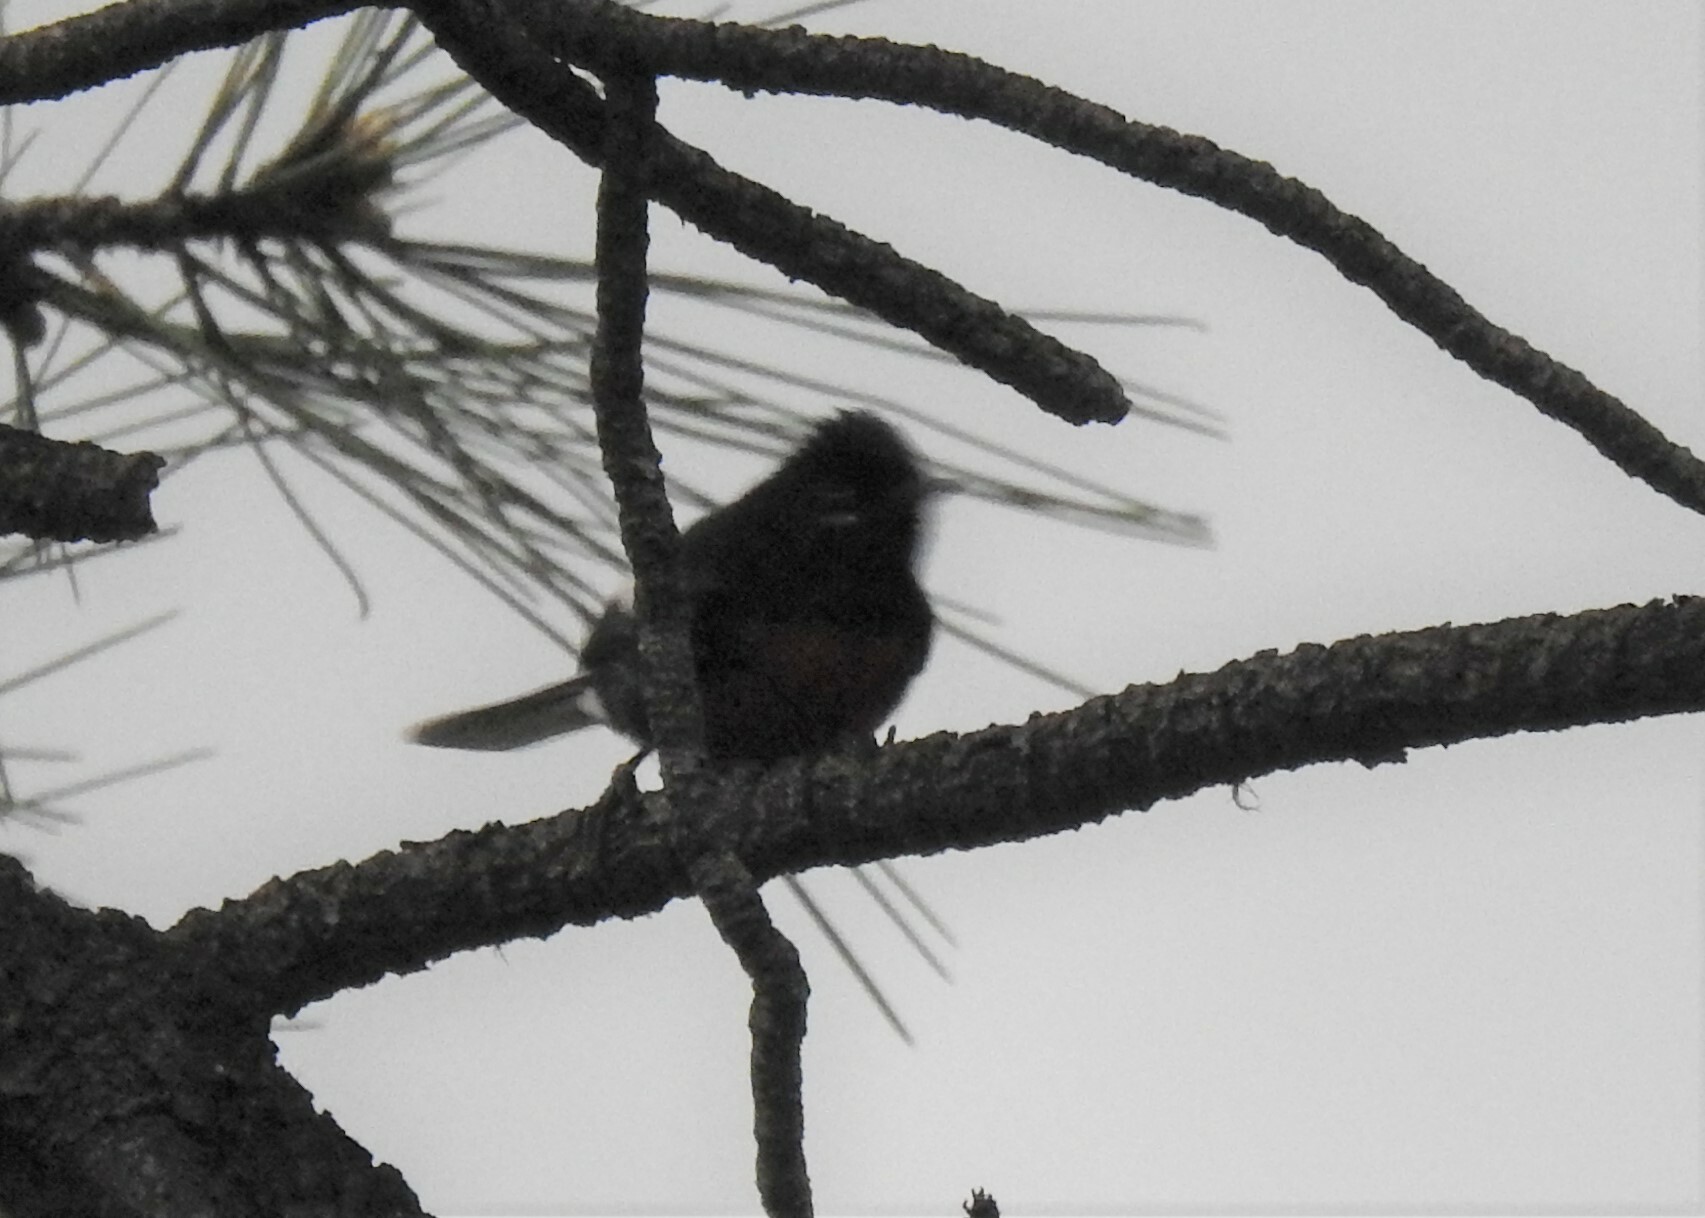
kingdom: Animalia
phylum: Chordata
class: Aves
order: Passeriformes
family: Parulidae
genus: Myioborus
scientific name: Myioborus pictus
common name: Painted whitestart
